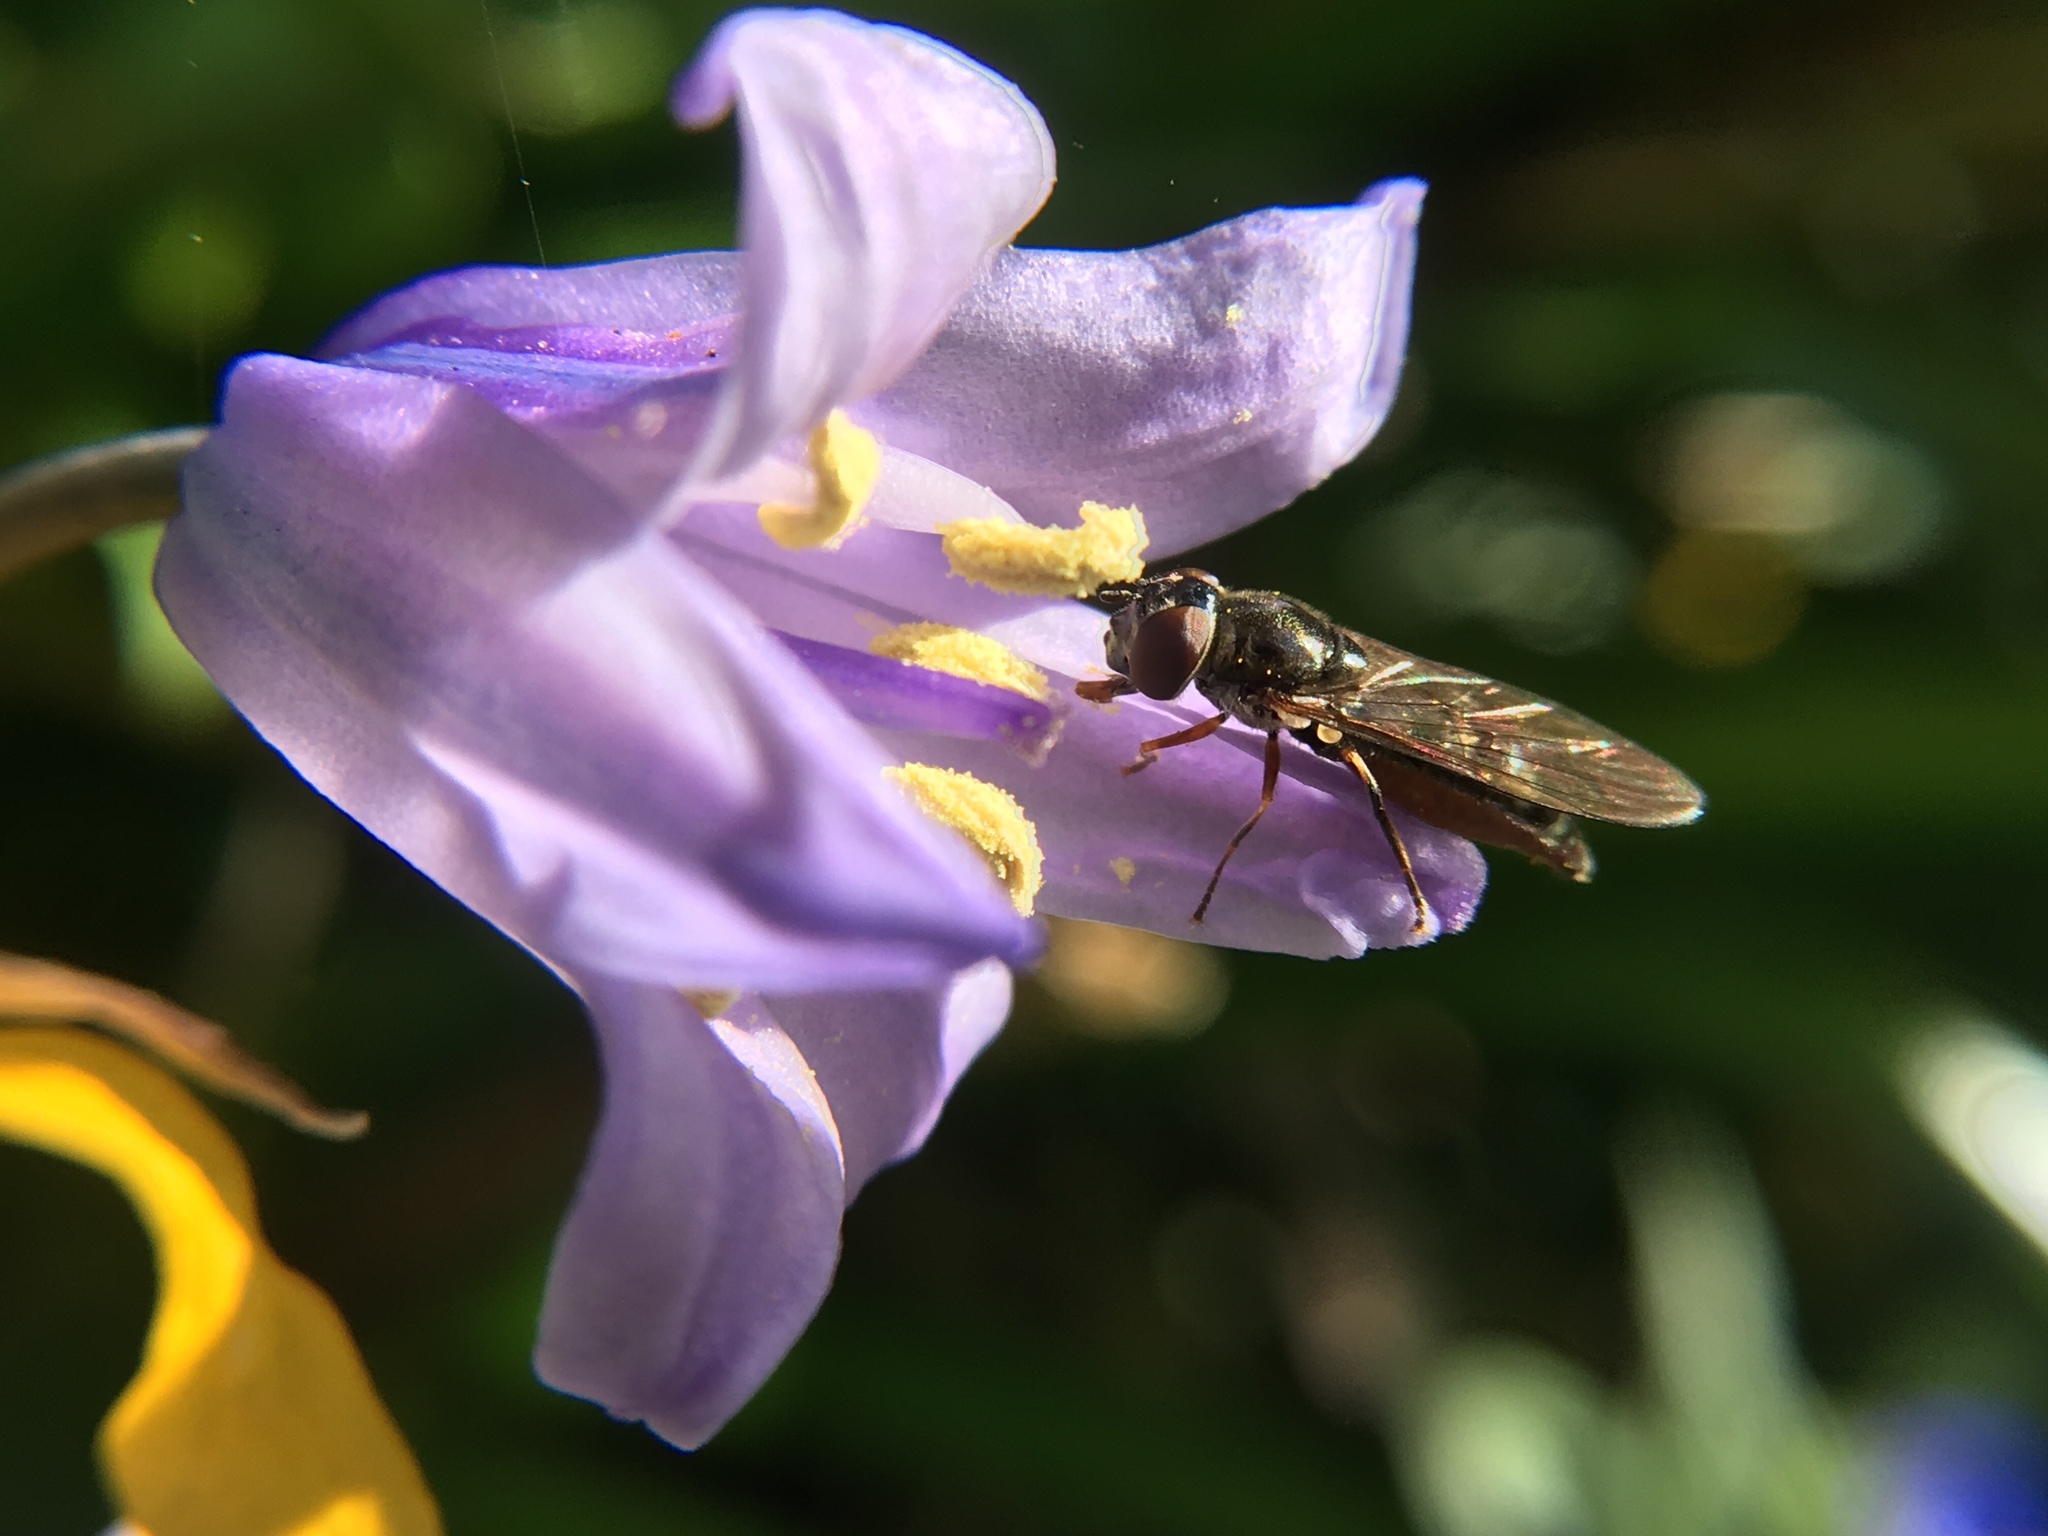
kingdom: Animalia
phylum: Arthropoda
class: Insecta
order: Diptera
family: Syrphidae
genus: Platycheirus
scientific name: Platycheirus albimanus
